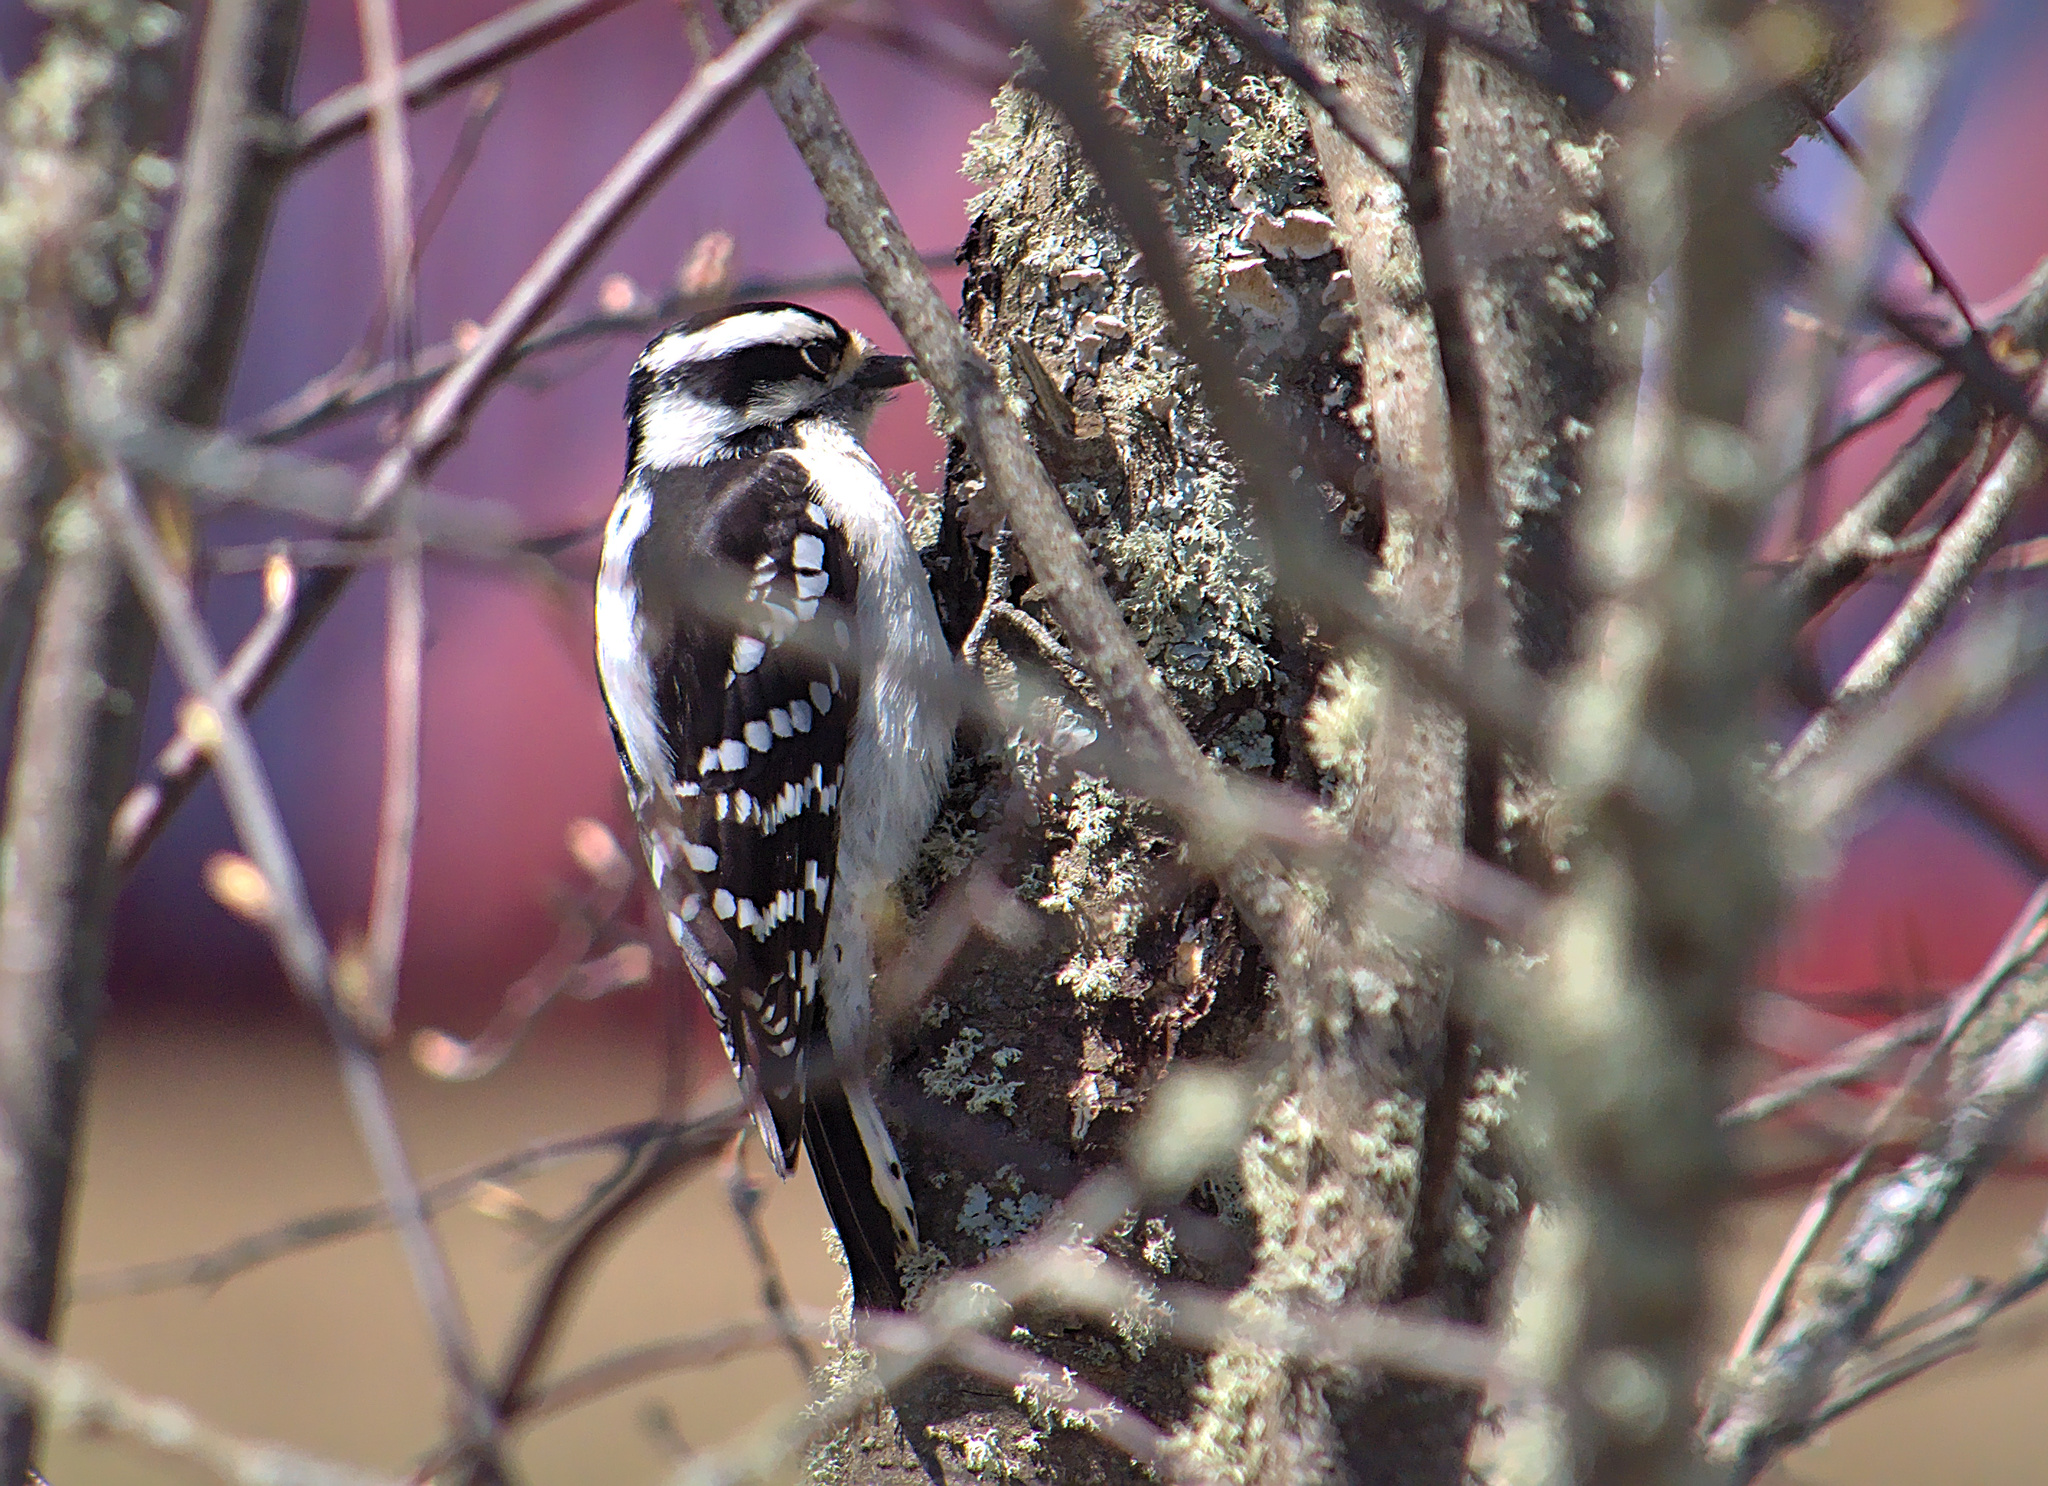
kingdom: Animalia
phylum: Chordata
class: Aves
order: Piciformes
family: Picidae
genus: Dryobates
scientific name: Dryobates pubescens
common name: Downy woodpecker
